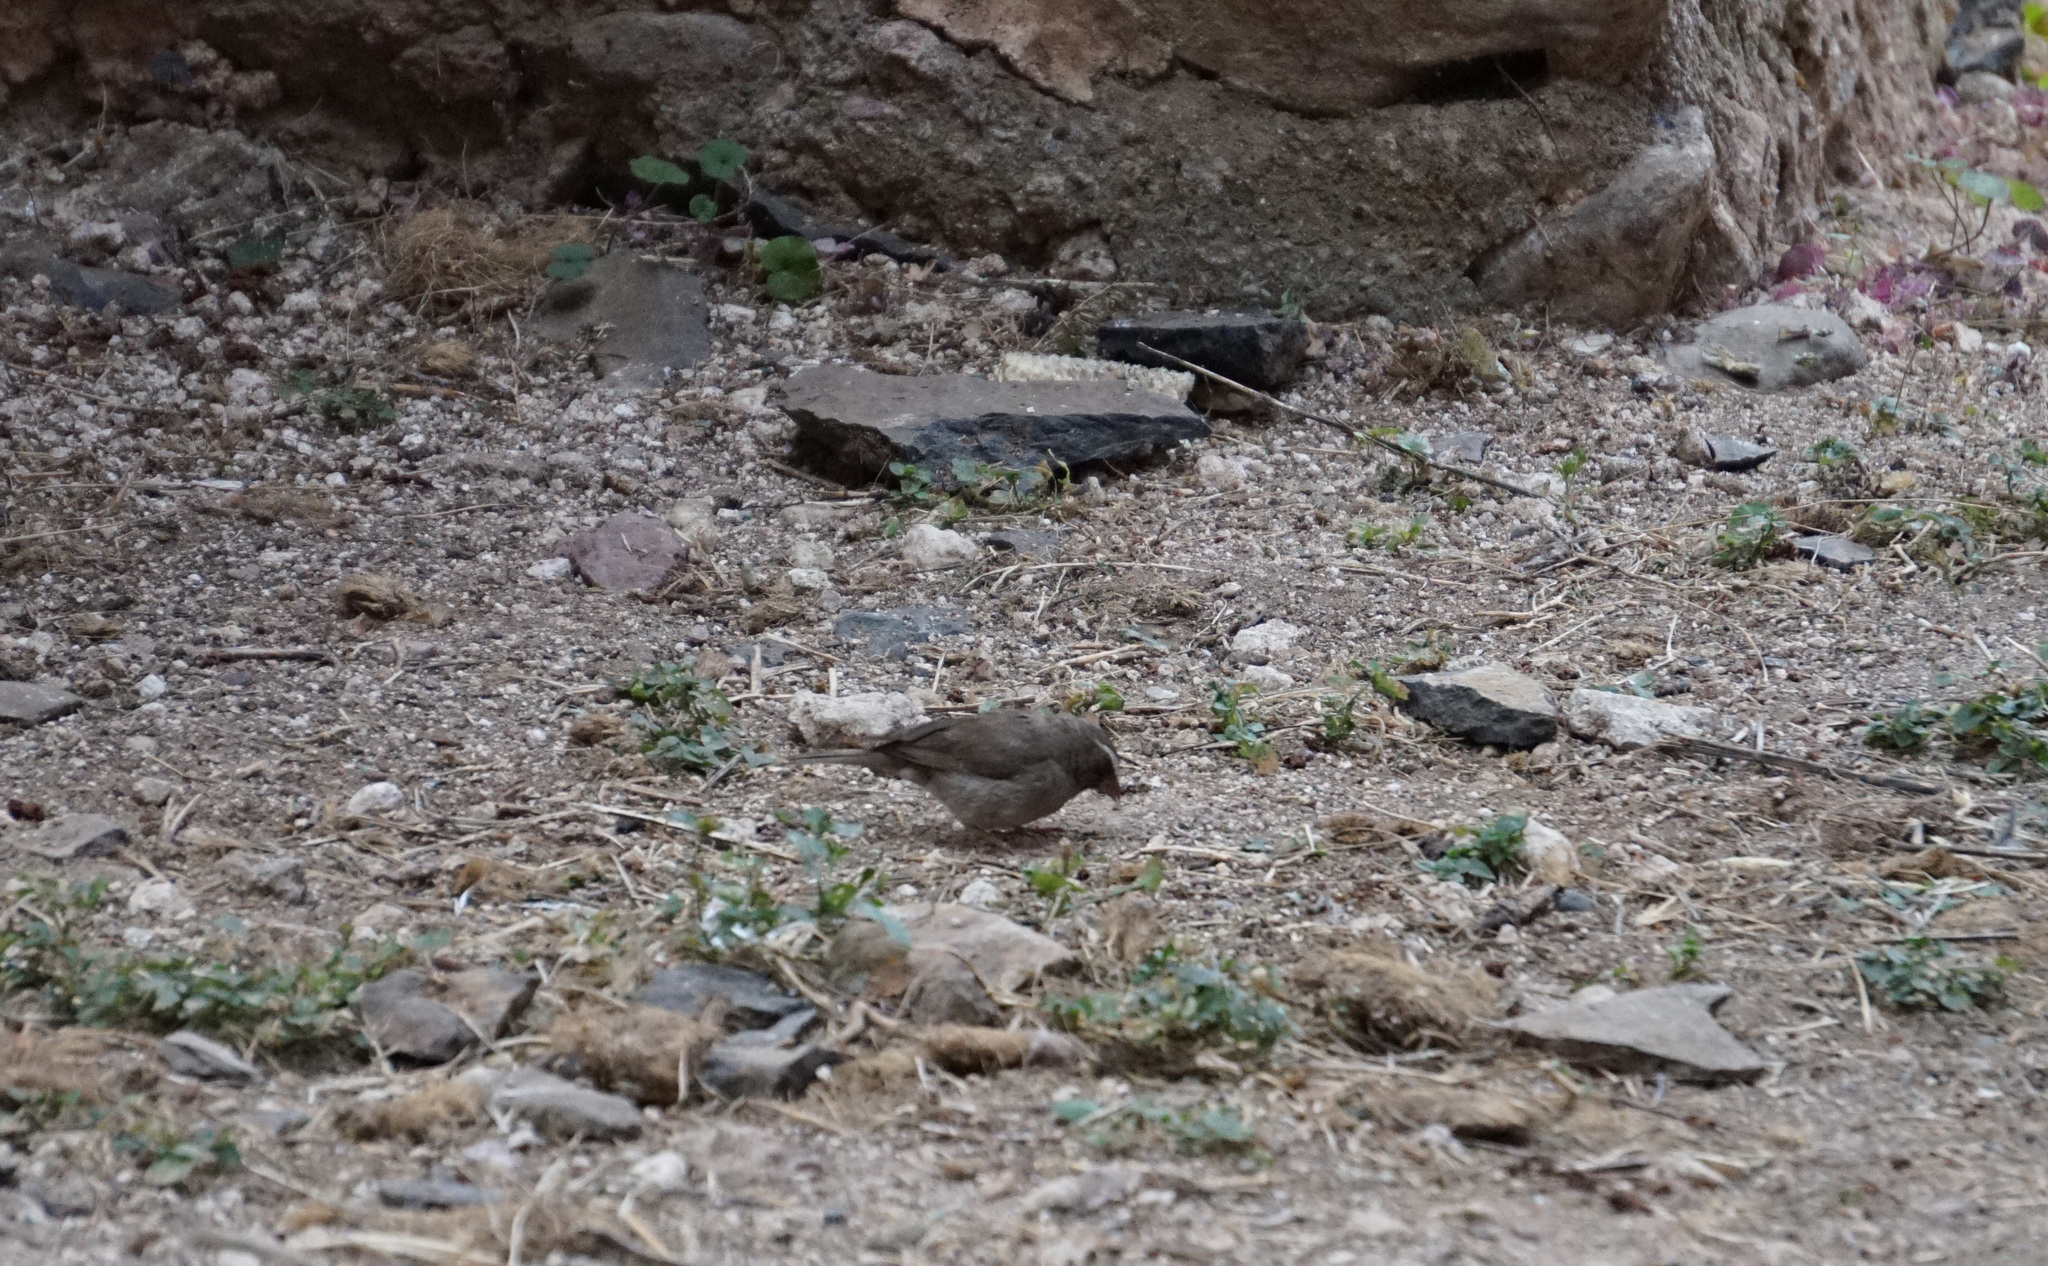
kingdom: Animalia
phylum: Chordata
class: Aves
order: Passeriformes
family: Fringillidae
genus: Crithagra
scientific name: Crithagra tristriata
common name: Brown-rumped seedeater
